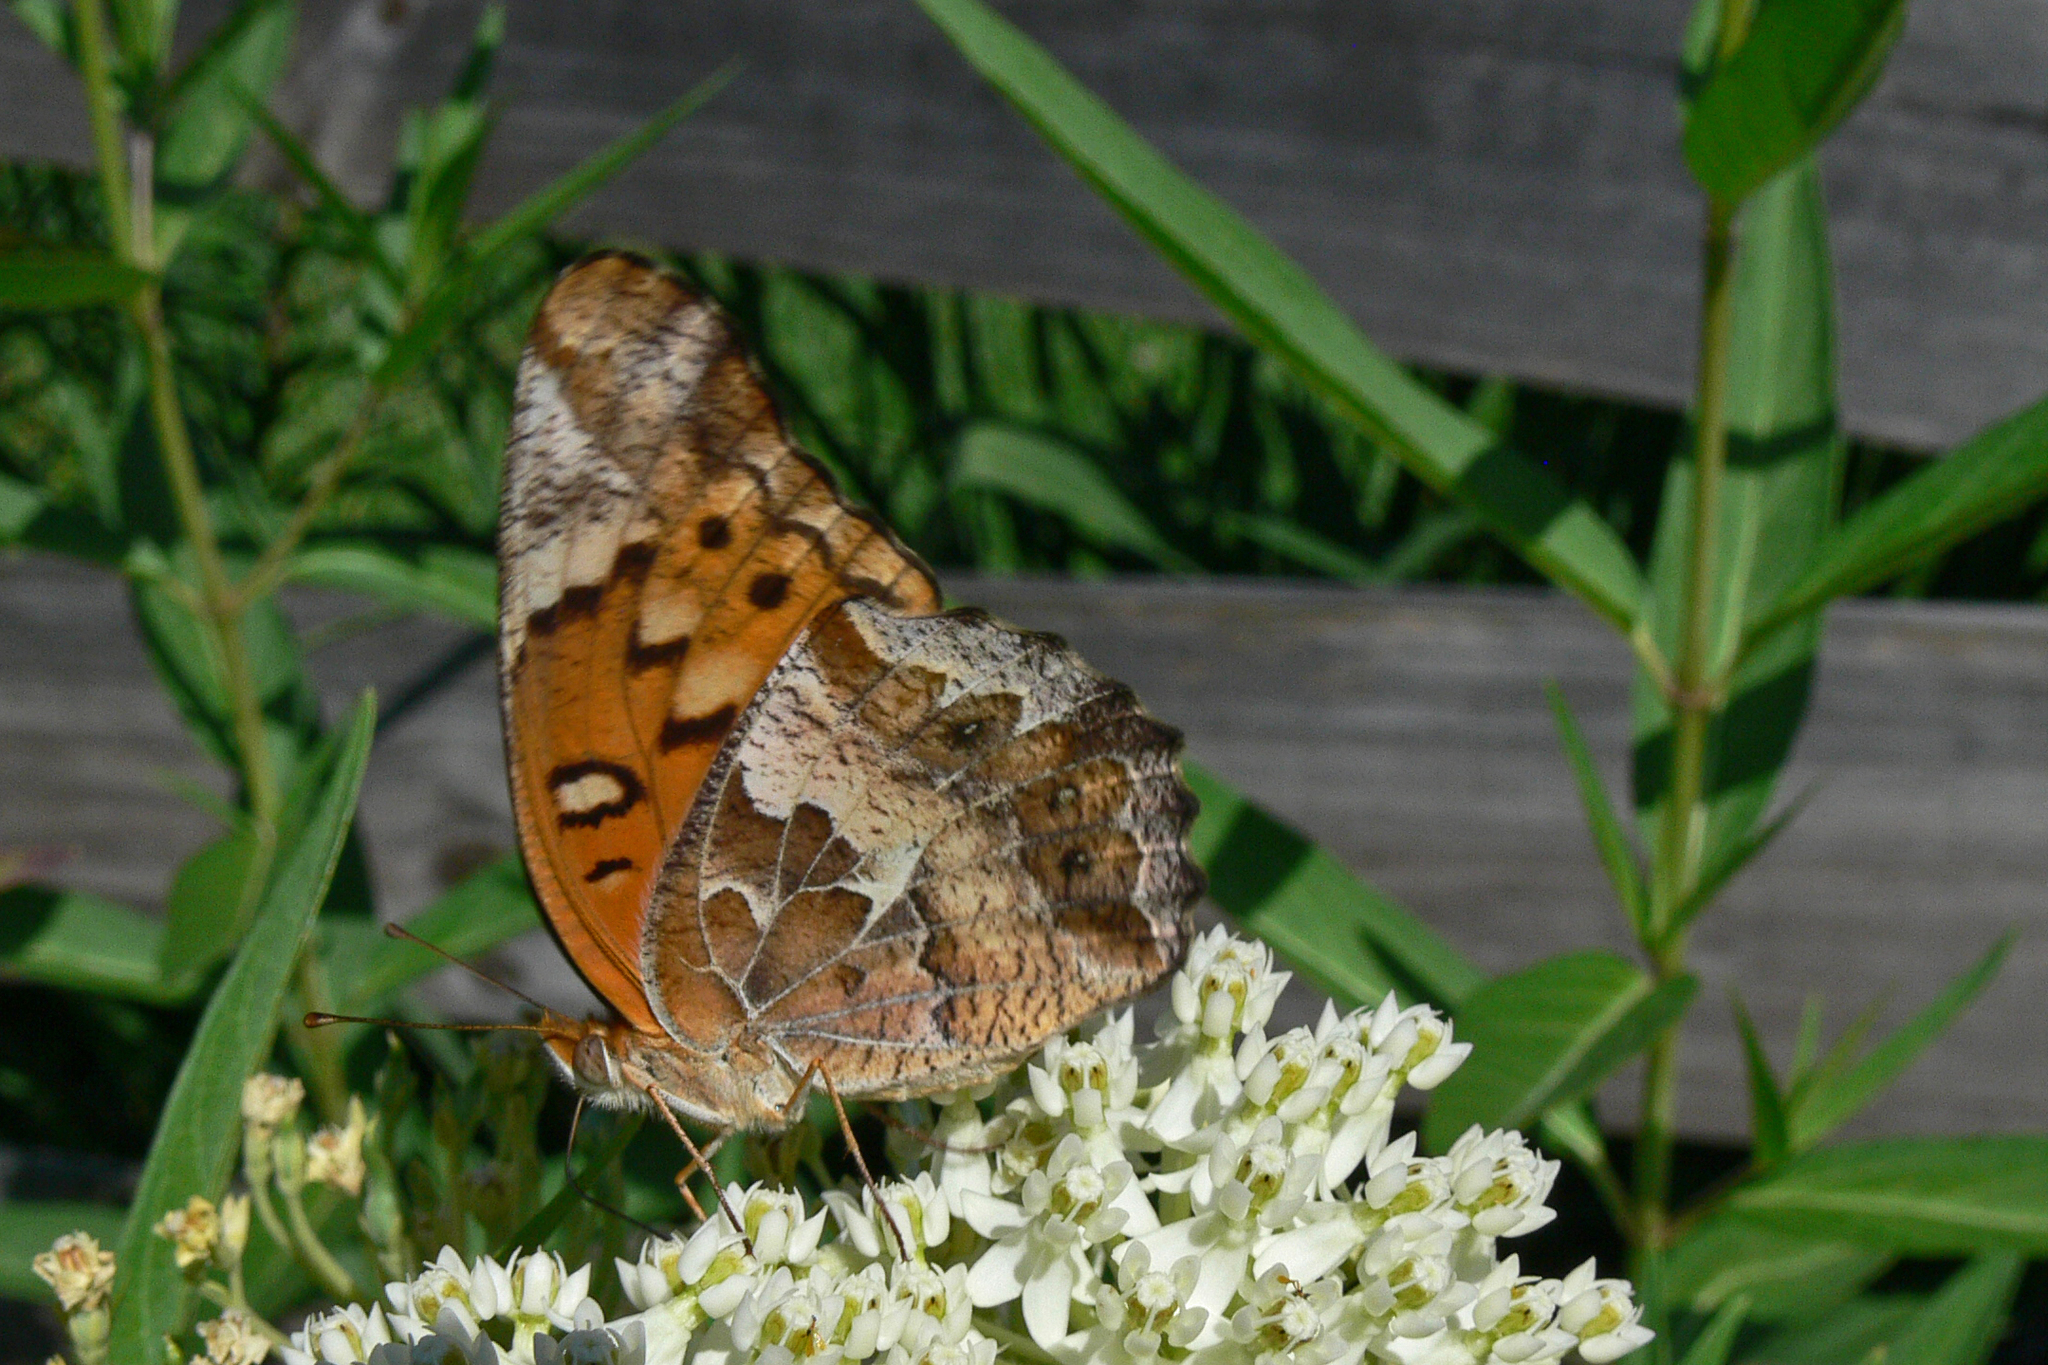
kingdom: Animalia
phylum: Arthropoda
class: Insecta
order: Lepidoptera
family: Nymphalidae
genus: Euptoieta
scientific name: Euptoieta claudia
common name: Variegated fritillary
